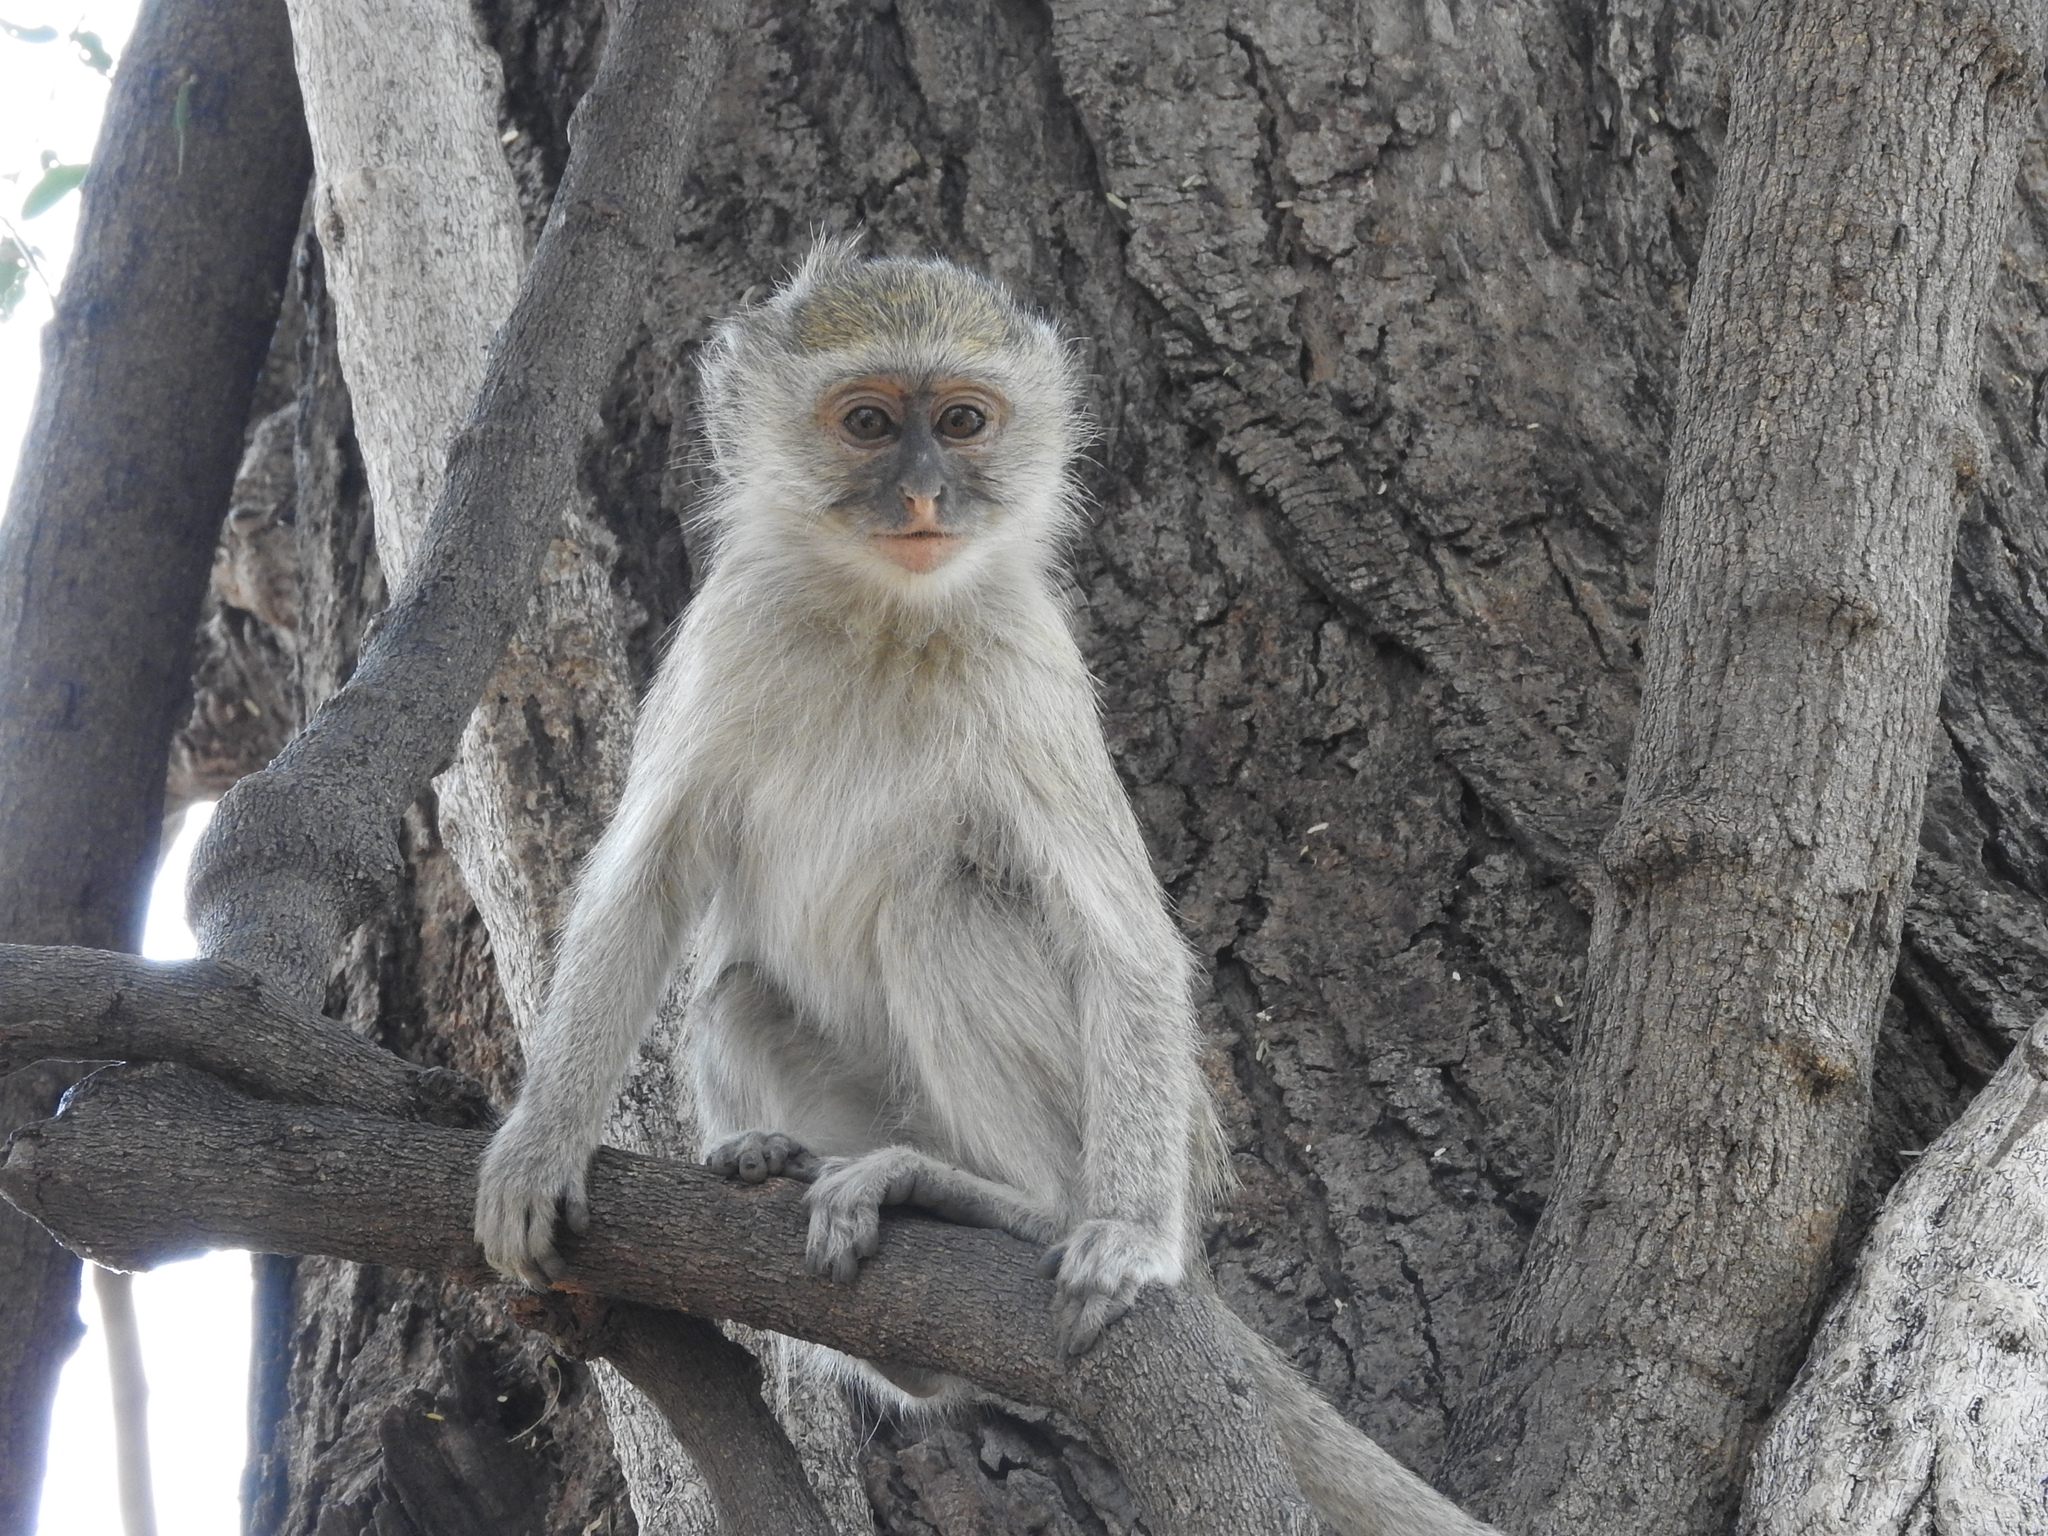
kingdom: Animalia
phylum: Chordata
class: Mammalia
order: Primates
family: Cercopithecidae
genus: Chlorocebus
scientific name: Chlorocebus cynosuros
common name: Malbrouck
